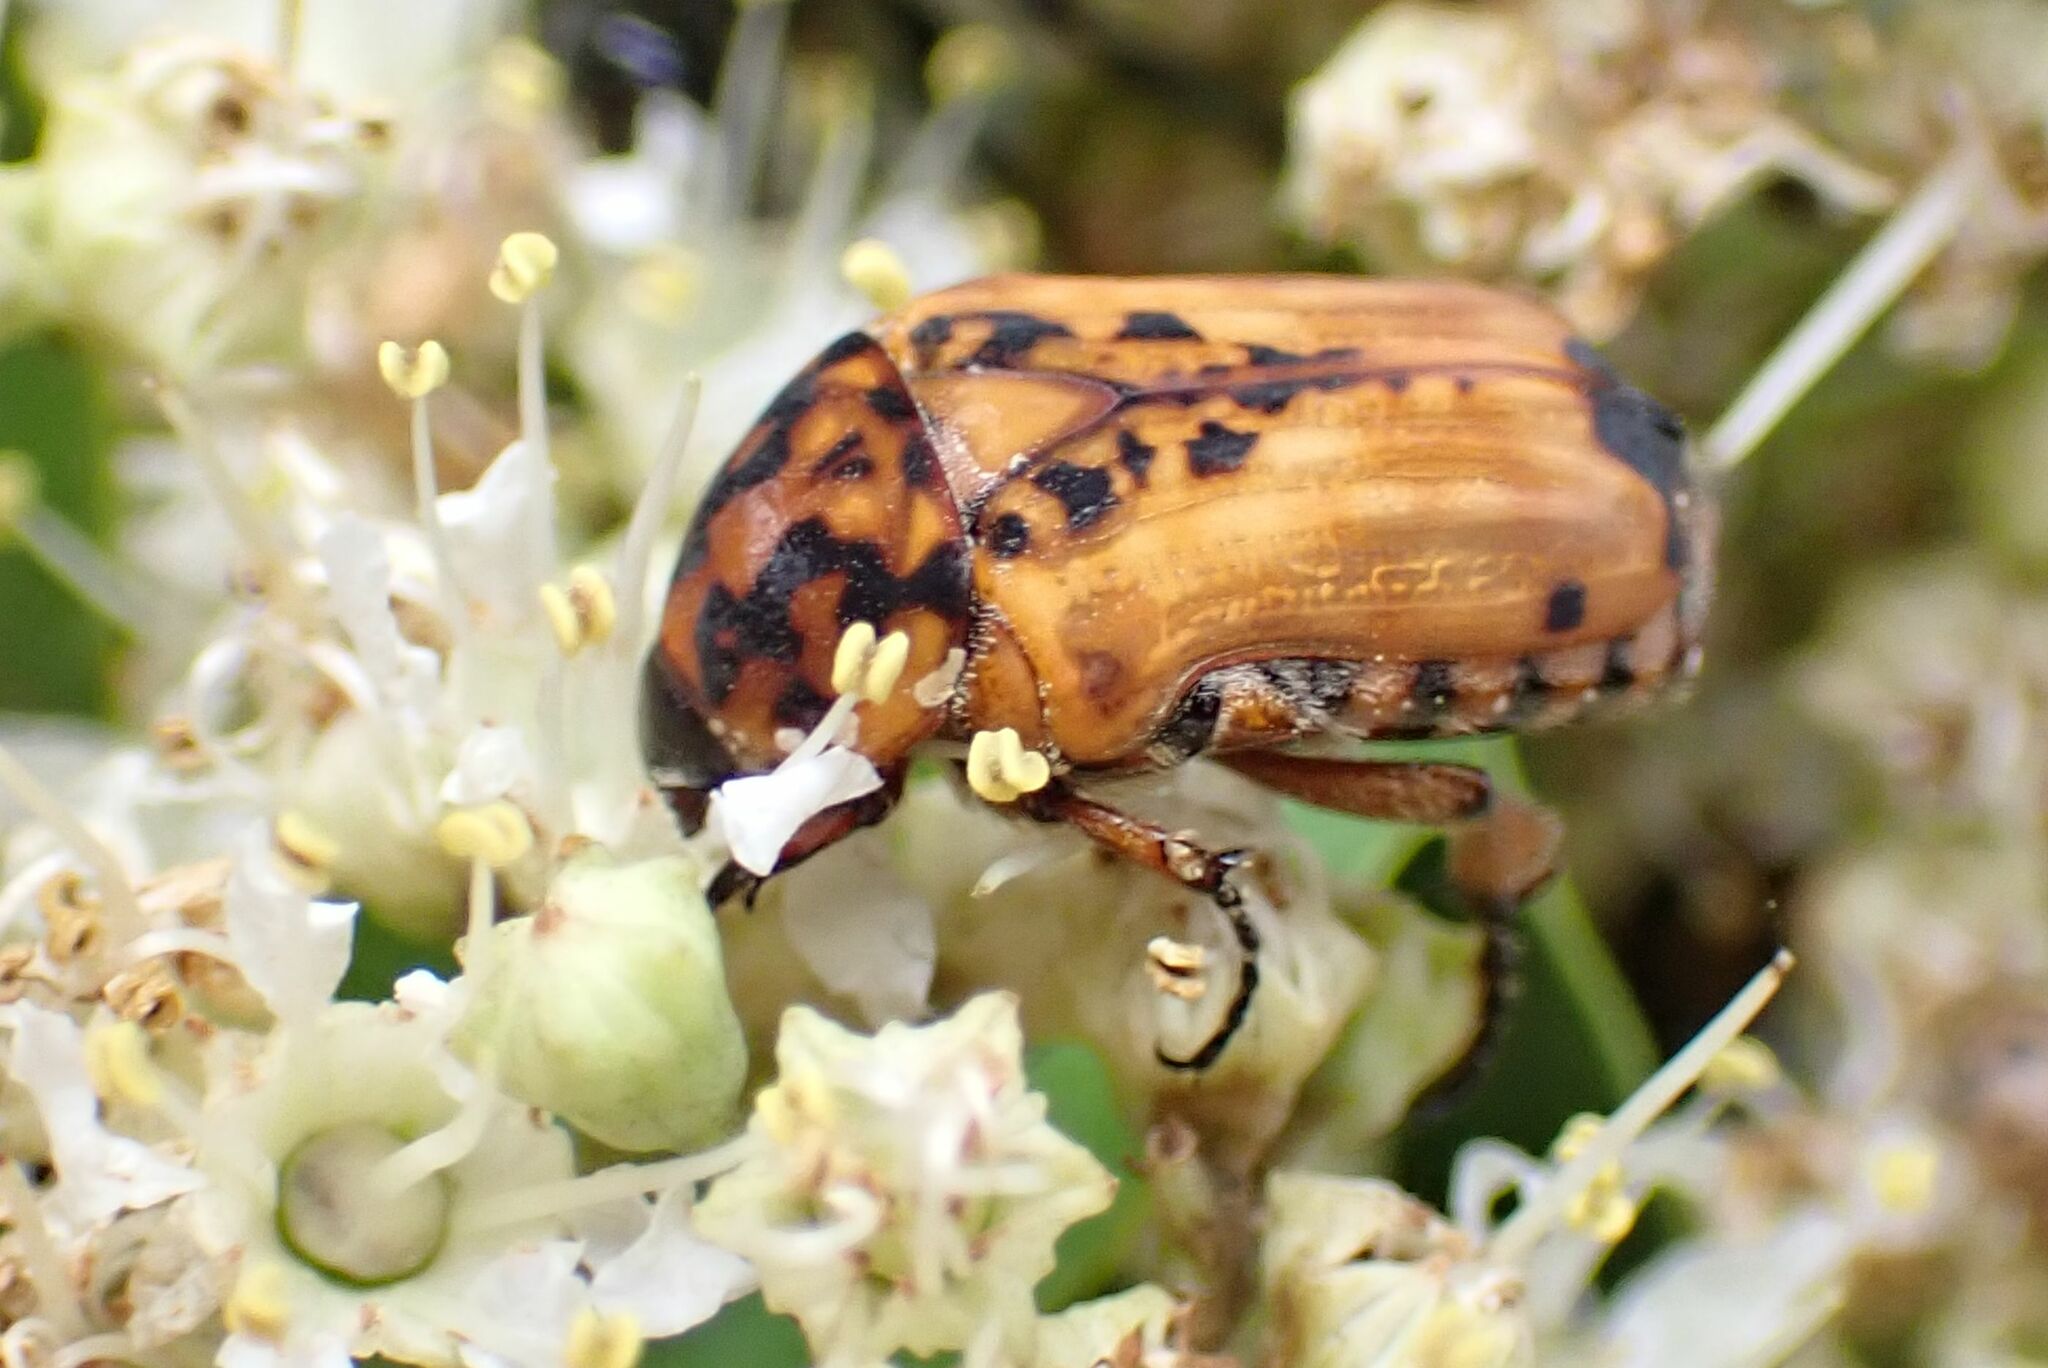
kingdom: Animalia
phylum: Arthropoda
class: Insecta
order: Coleoptera
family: Scarabaeidae
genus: Dolichostethus
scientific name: Dolichostethus levis
